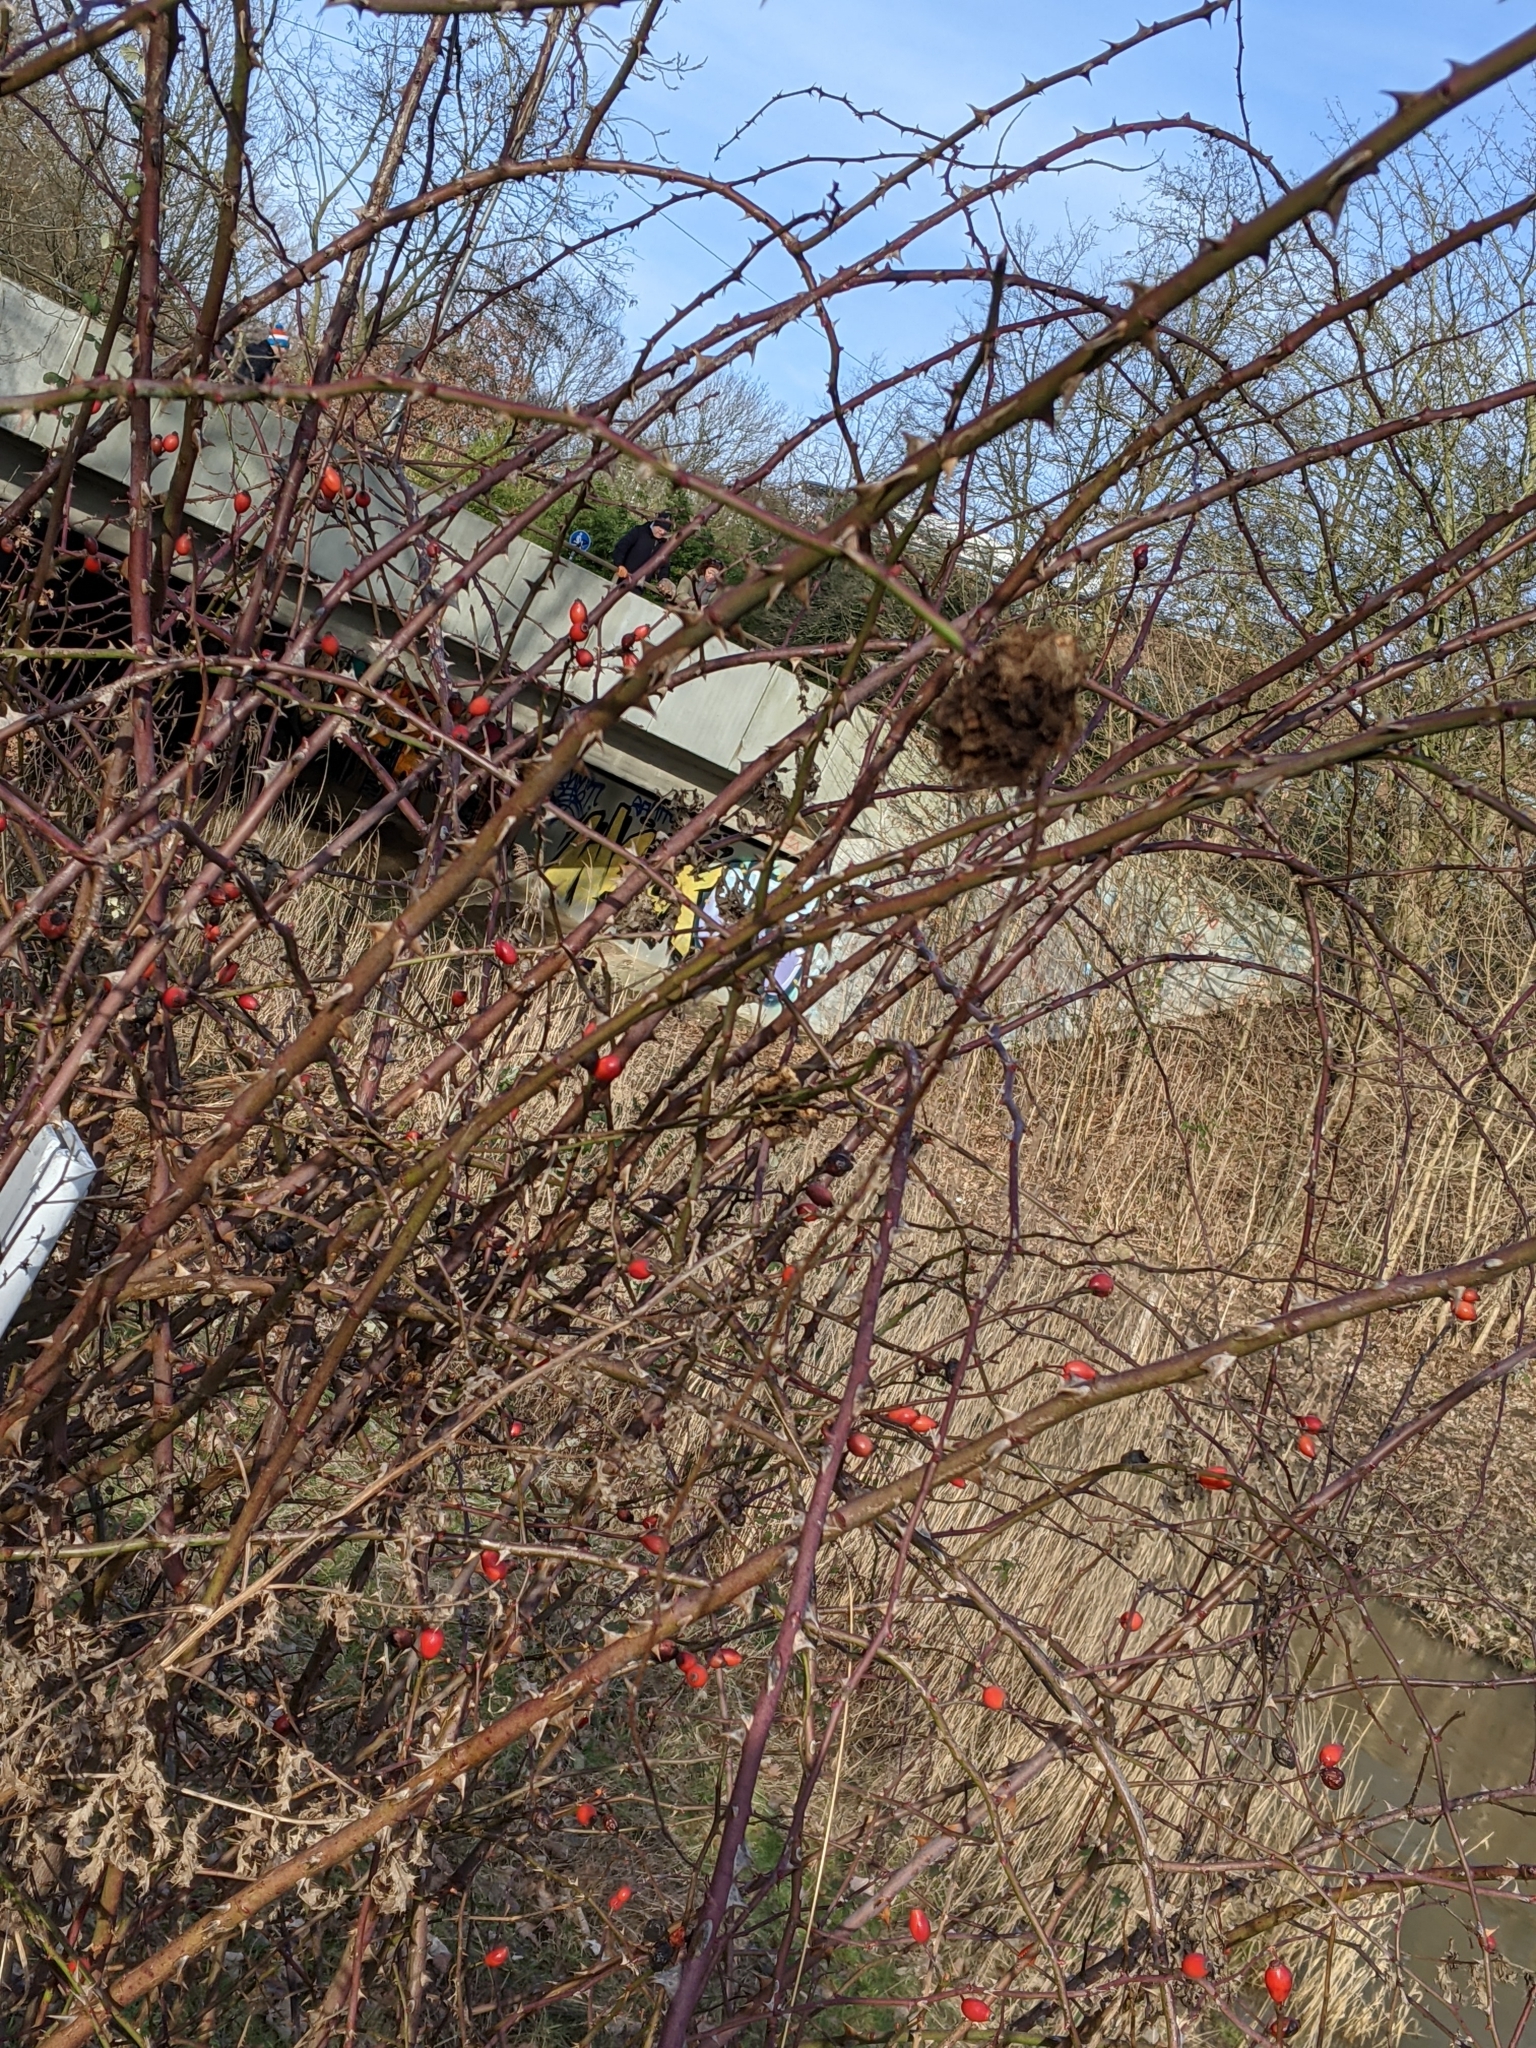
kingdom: Animalia
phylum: Arthropoda
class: Insecta
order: Hymenoptera
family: Cynipidae
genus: Diplolepis
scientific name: Diplolepis rosae
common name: Bedeguar gall
